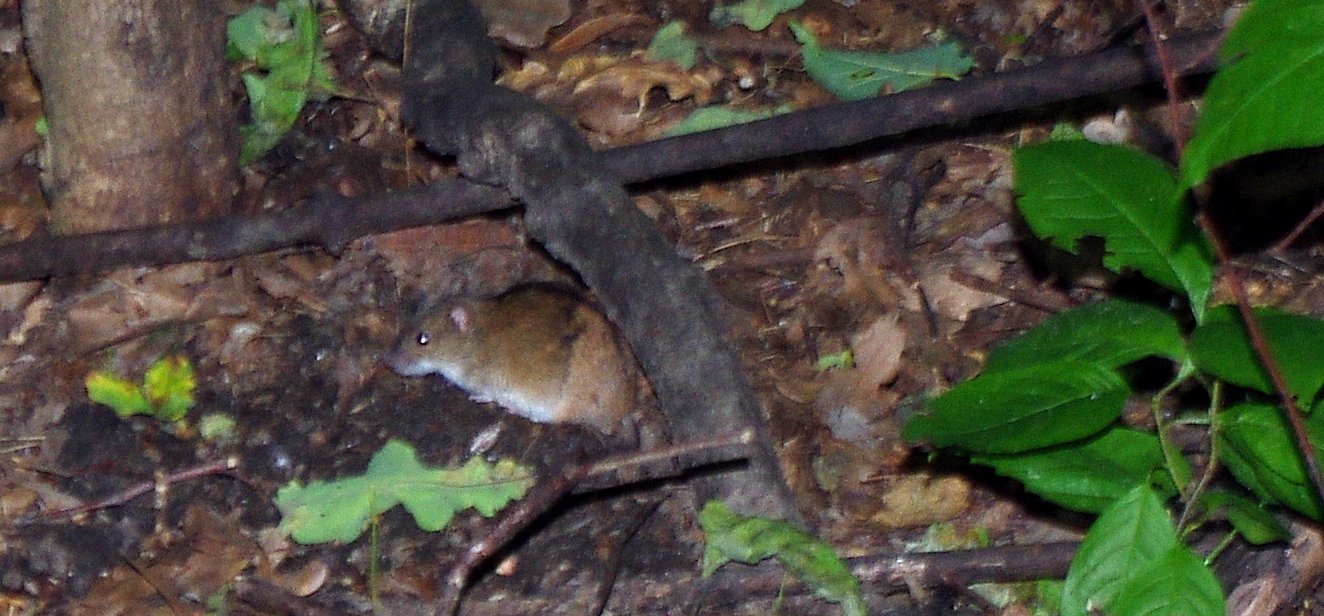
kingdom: Animalia
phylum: Chordata
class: Mammalia
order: Rodentia
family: Muridae
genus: Apodemus
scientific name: Apodemus agrarius
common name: Striped field mouse
